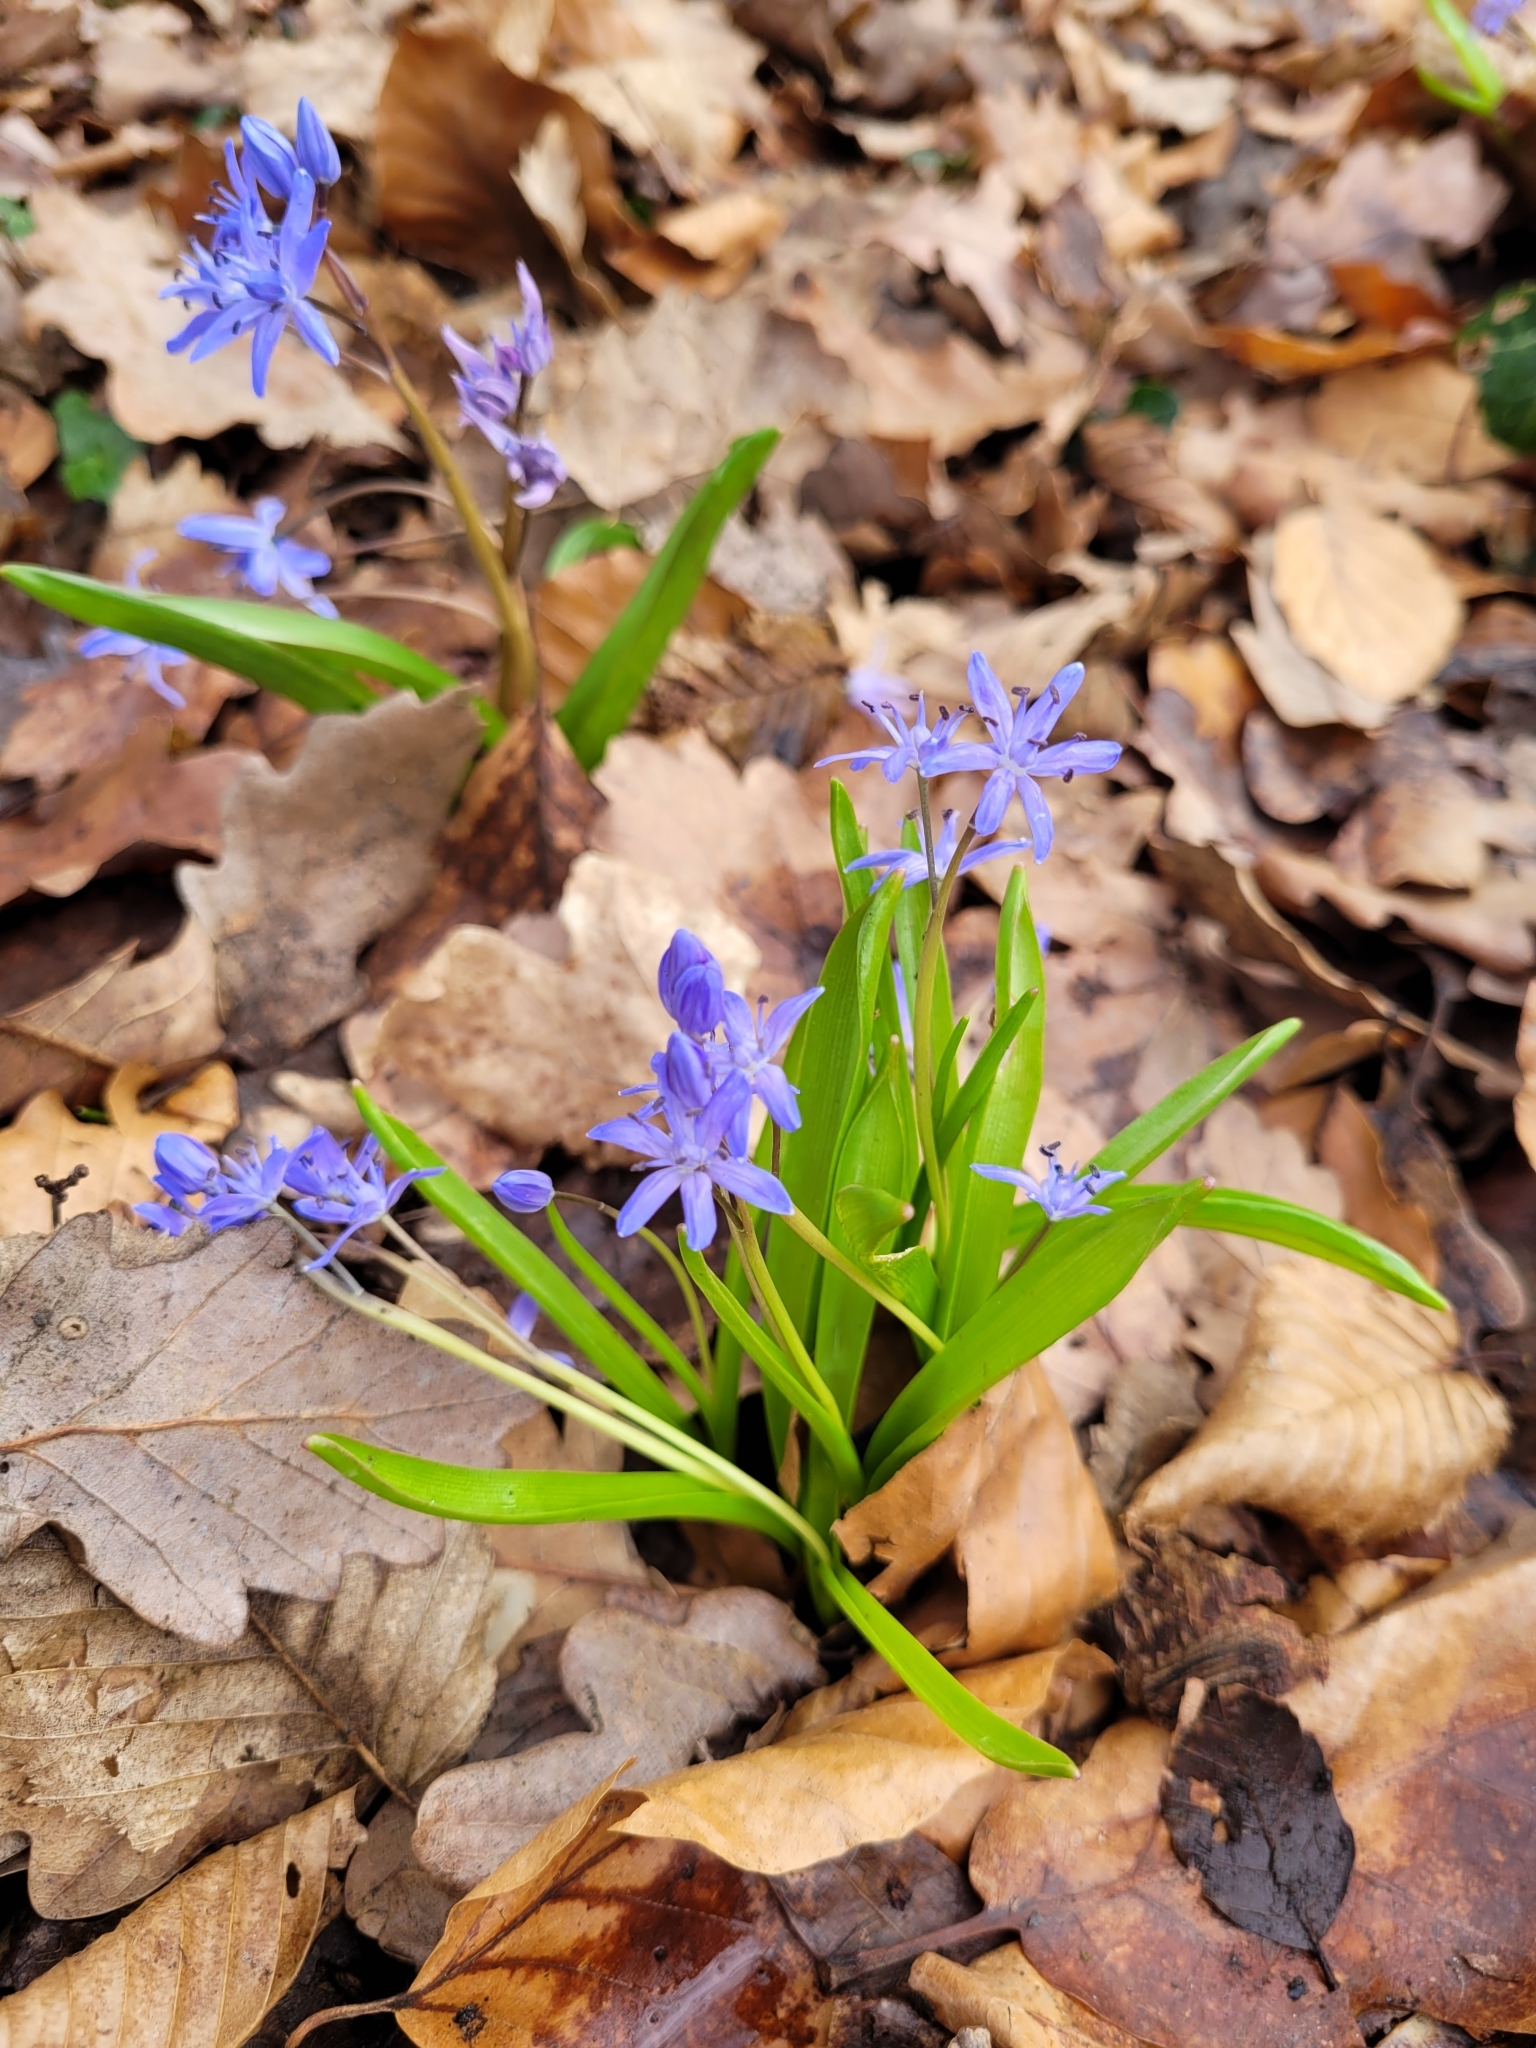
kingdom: Plantae
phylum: Tracheophyta
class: Liliopsida
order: Asparagales
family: Asparagaceae
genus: Scilla
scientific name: Scilla bifolia
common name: Alpine squill
